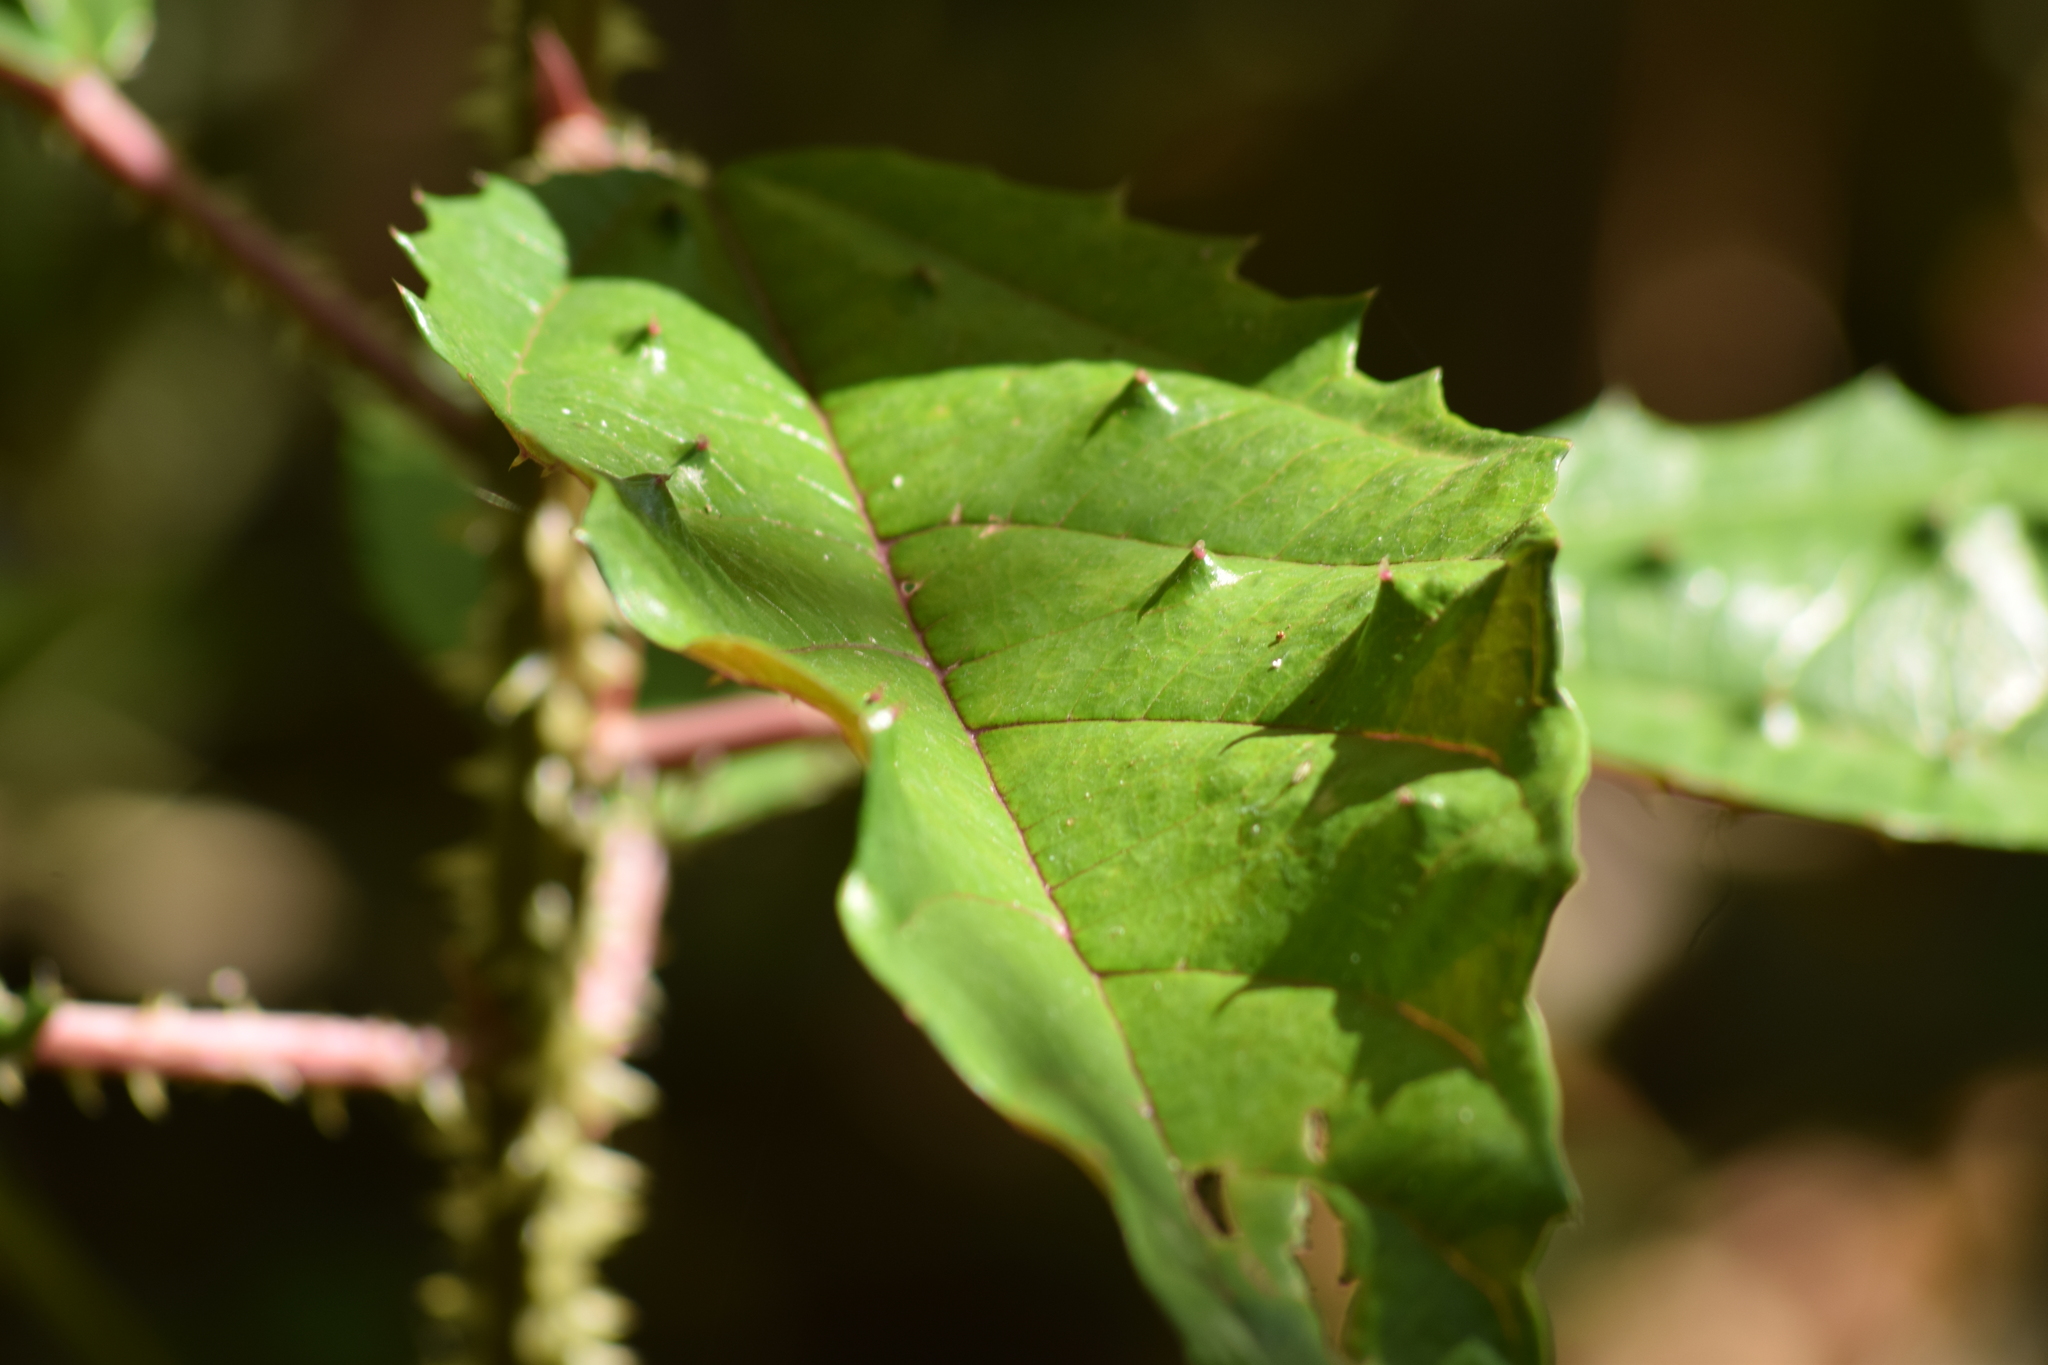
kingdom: Plantae
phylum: Tracheophyta
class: Magnoliopsida
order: Rosales
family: Urticaceae
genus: Urera
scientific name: Urera nitida
